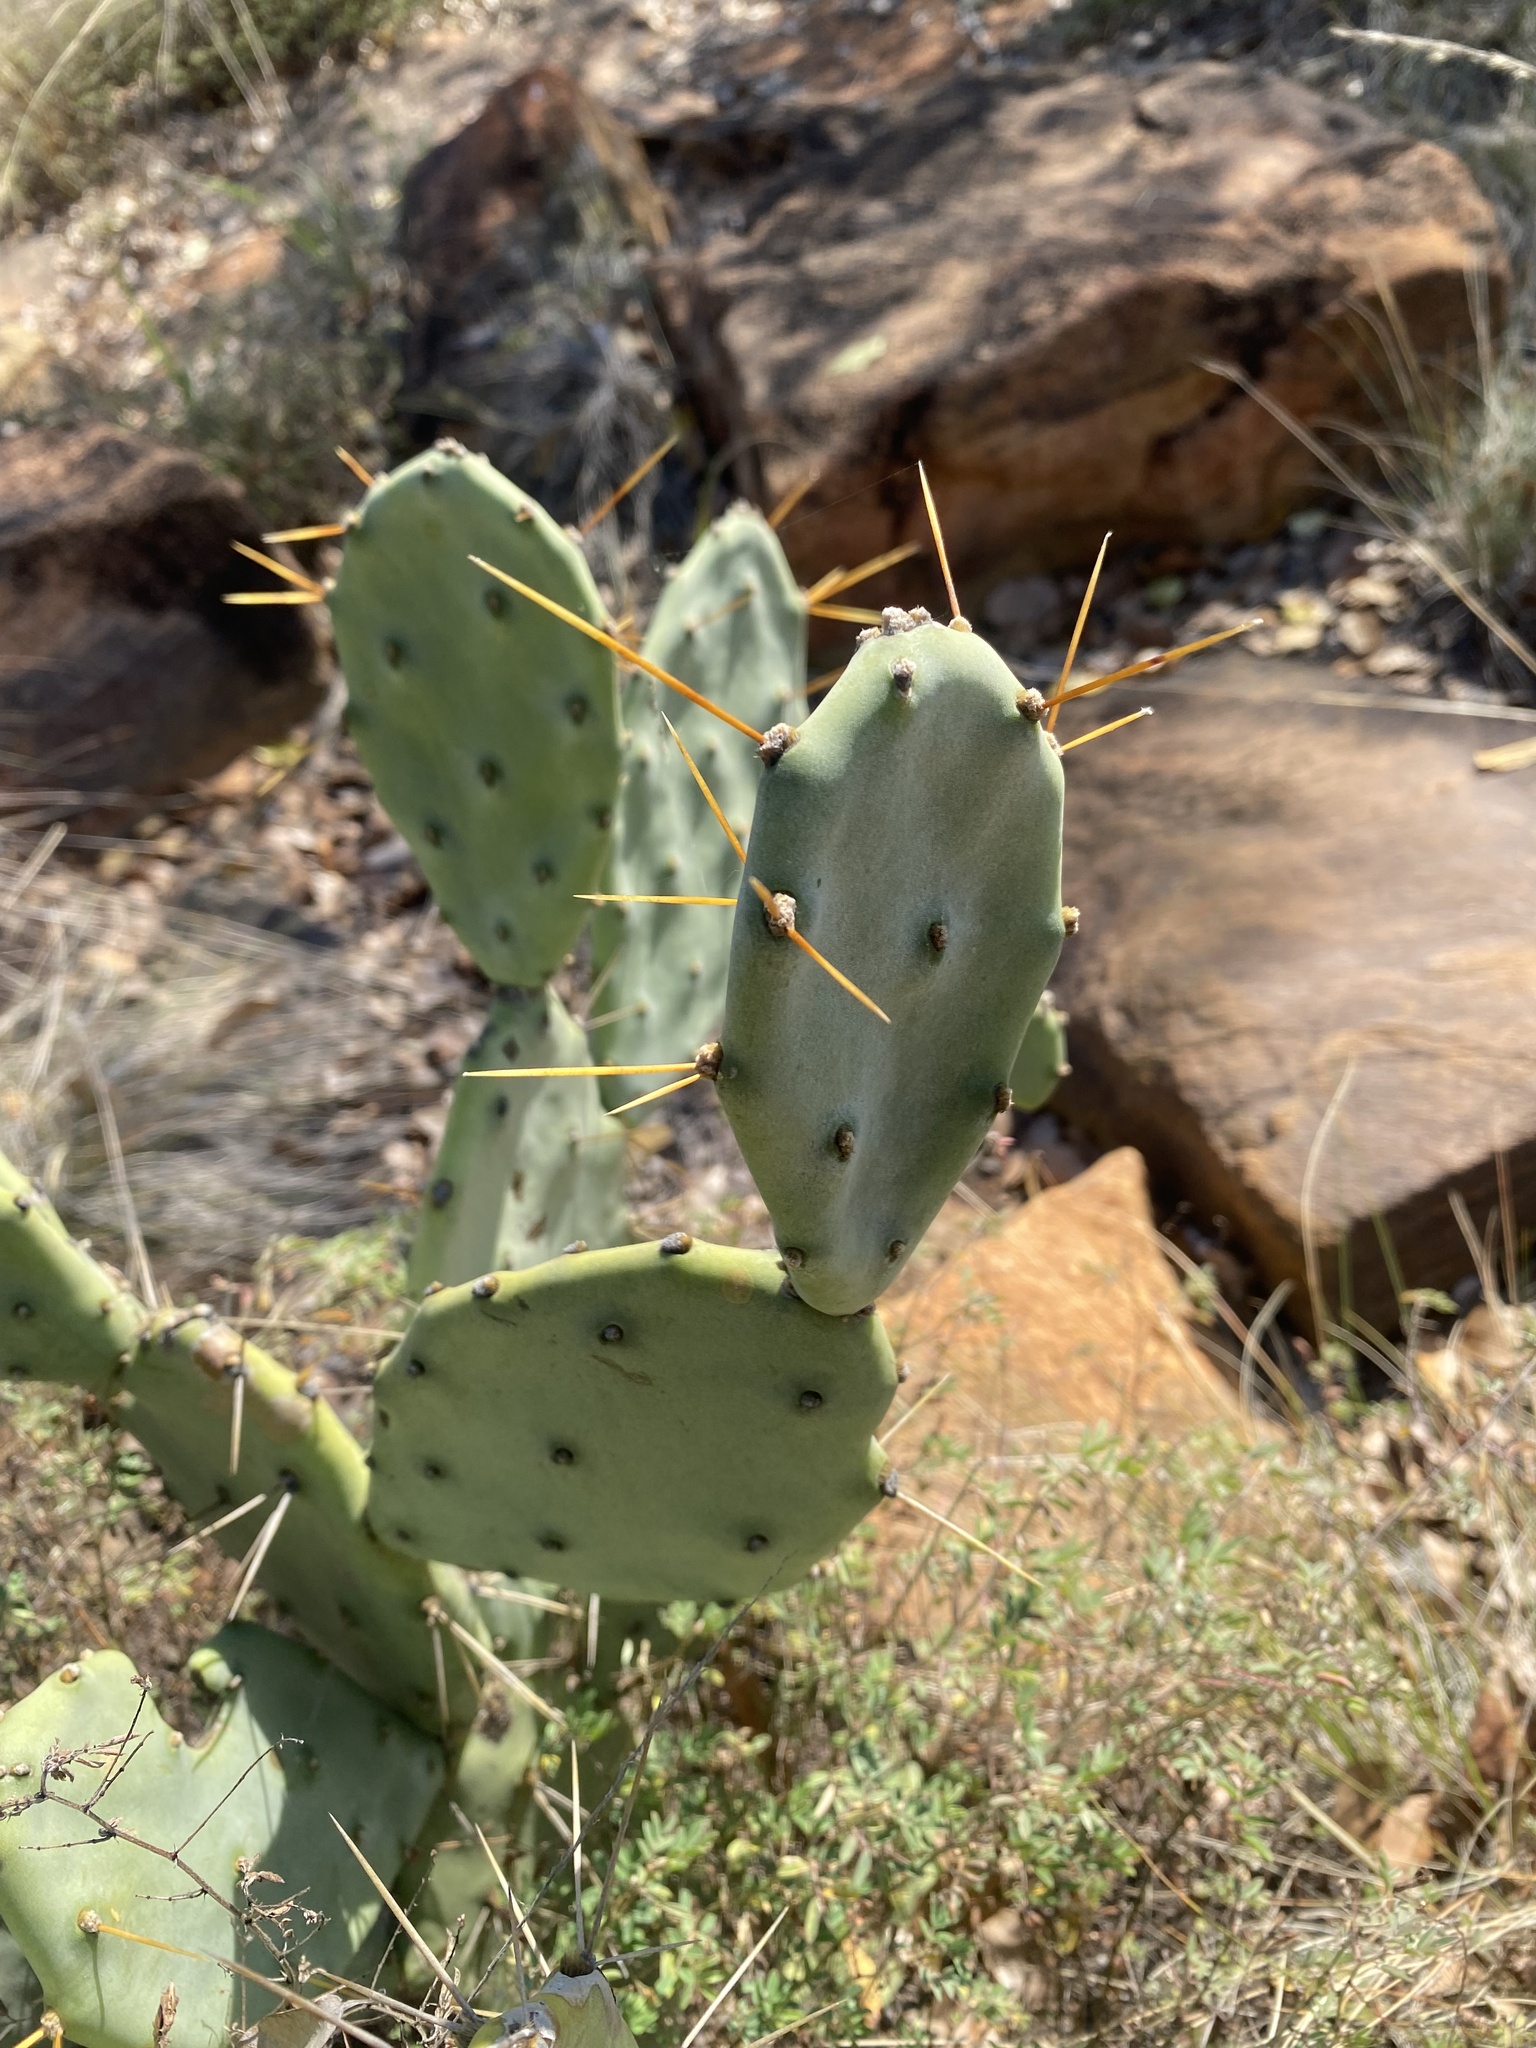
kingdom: Plantae
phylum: Tracheophyta
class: Magnoliopsida
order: Caryophyllales
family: Cactaceae
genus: Opuntia
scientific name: Opuntia stricta
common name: Erect pricklypear
